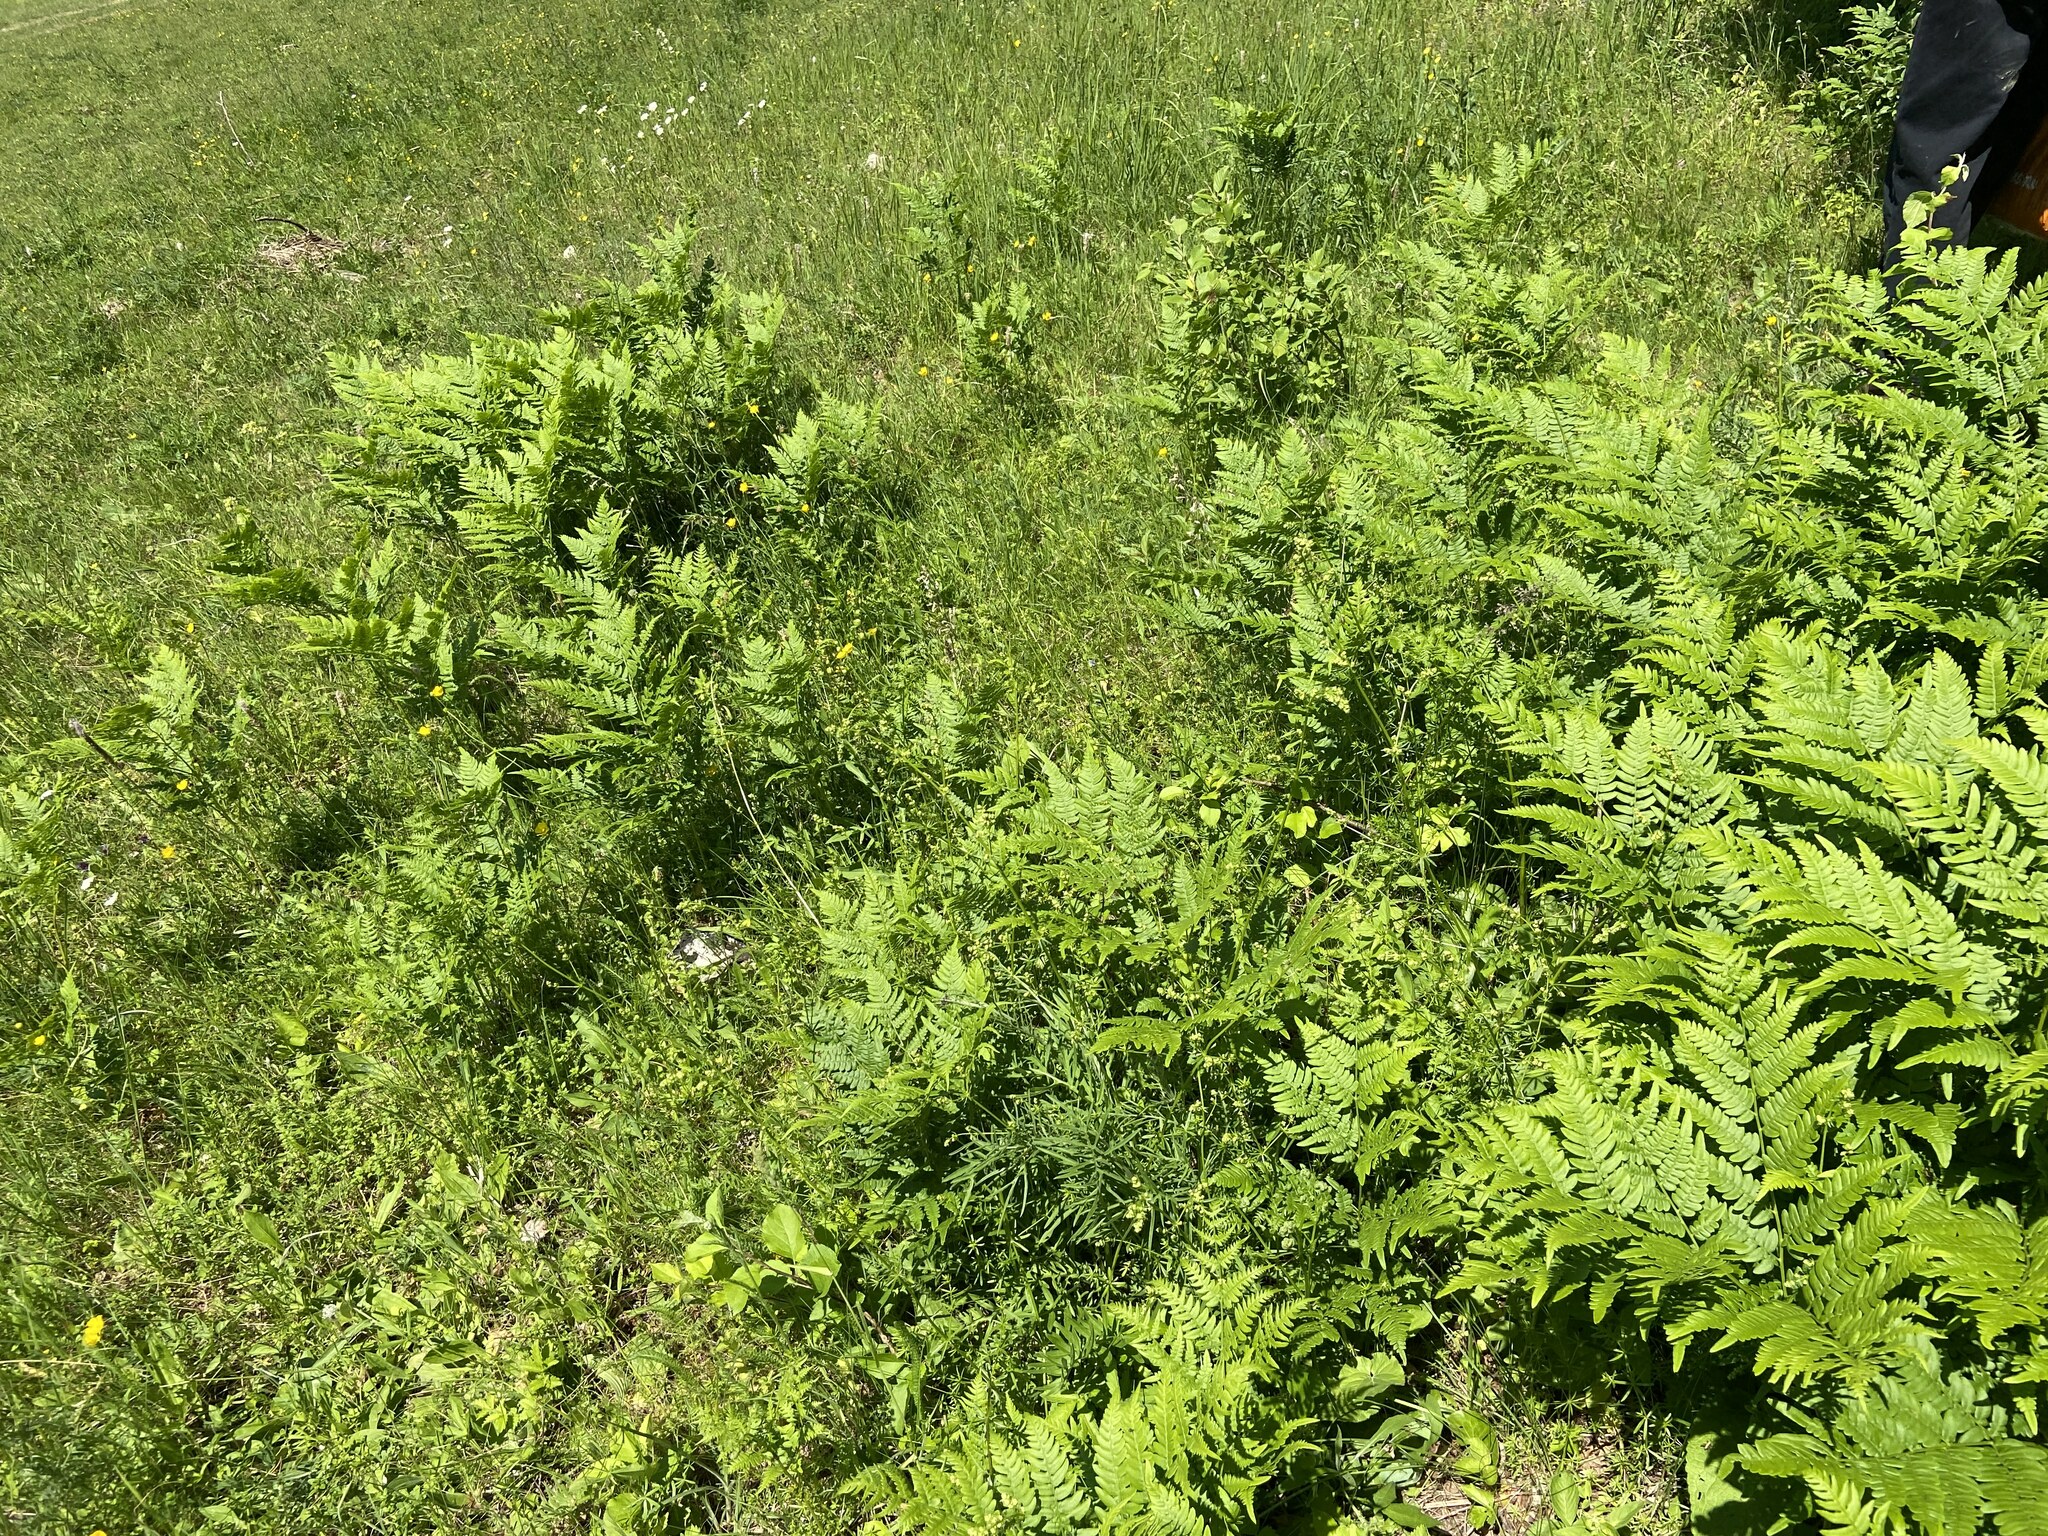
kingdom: Plantae
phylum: Tracheophyta
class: Polypodiopsida
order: Polypodiales
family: Dennstaedtiaceae
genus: Pteridium
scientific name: Pteridium aquilinum
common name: Bracken
